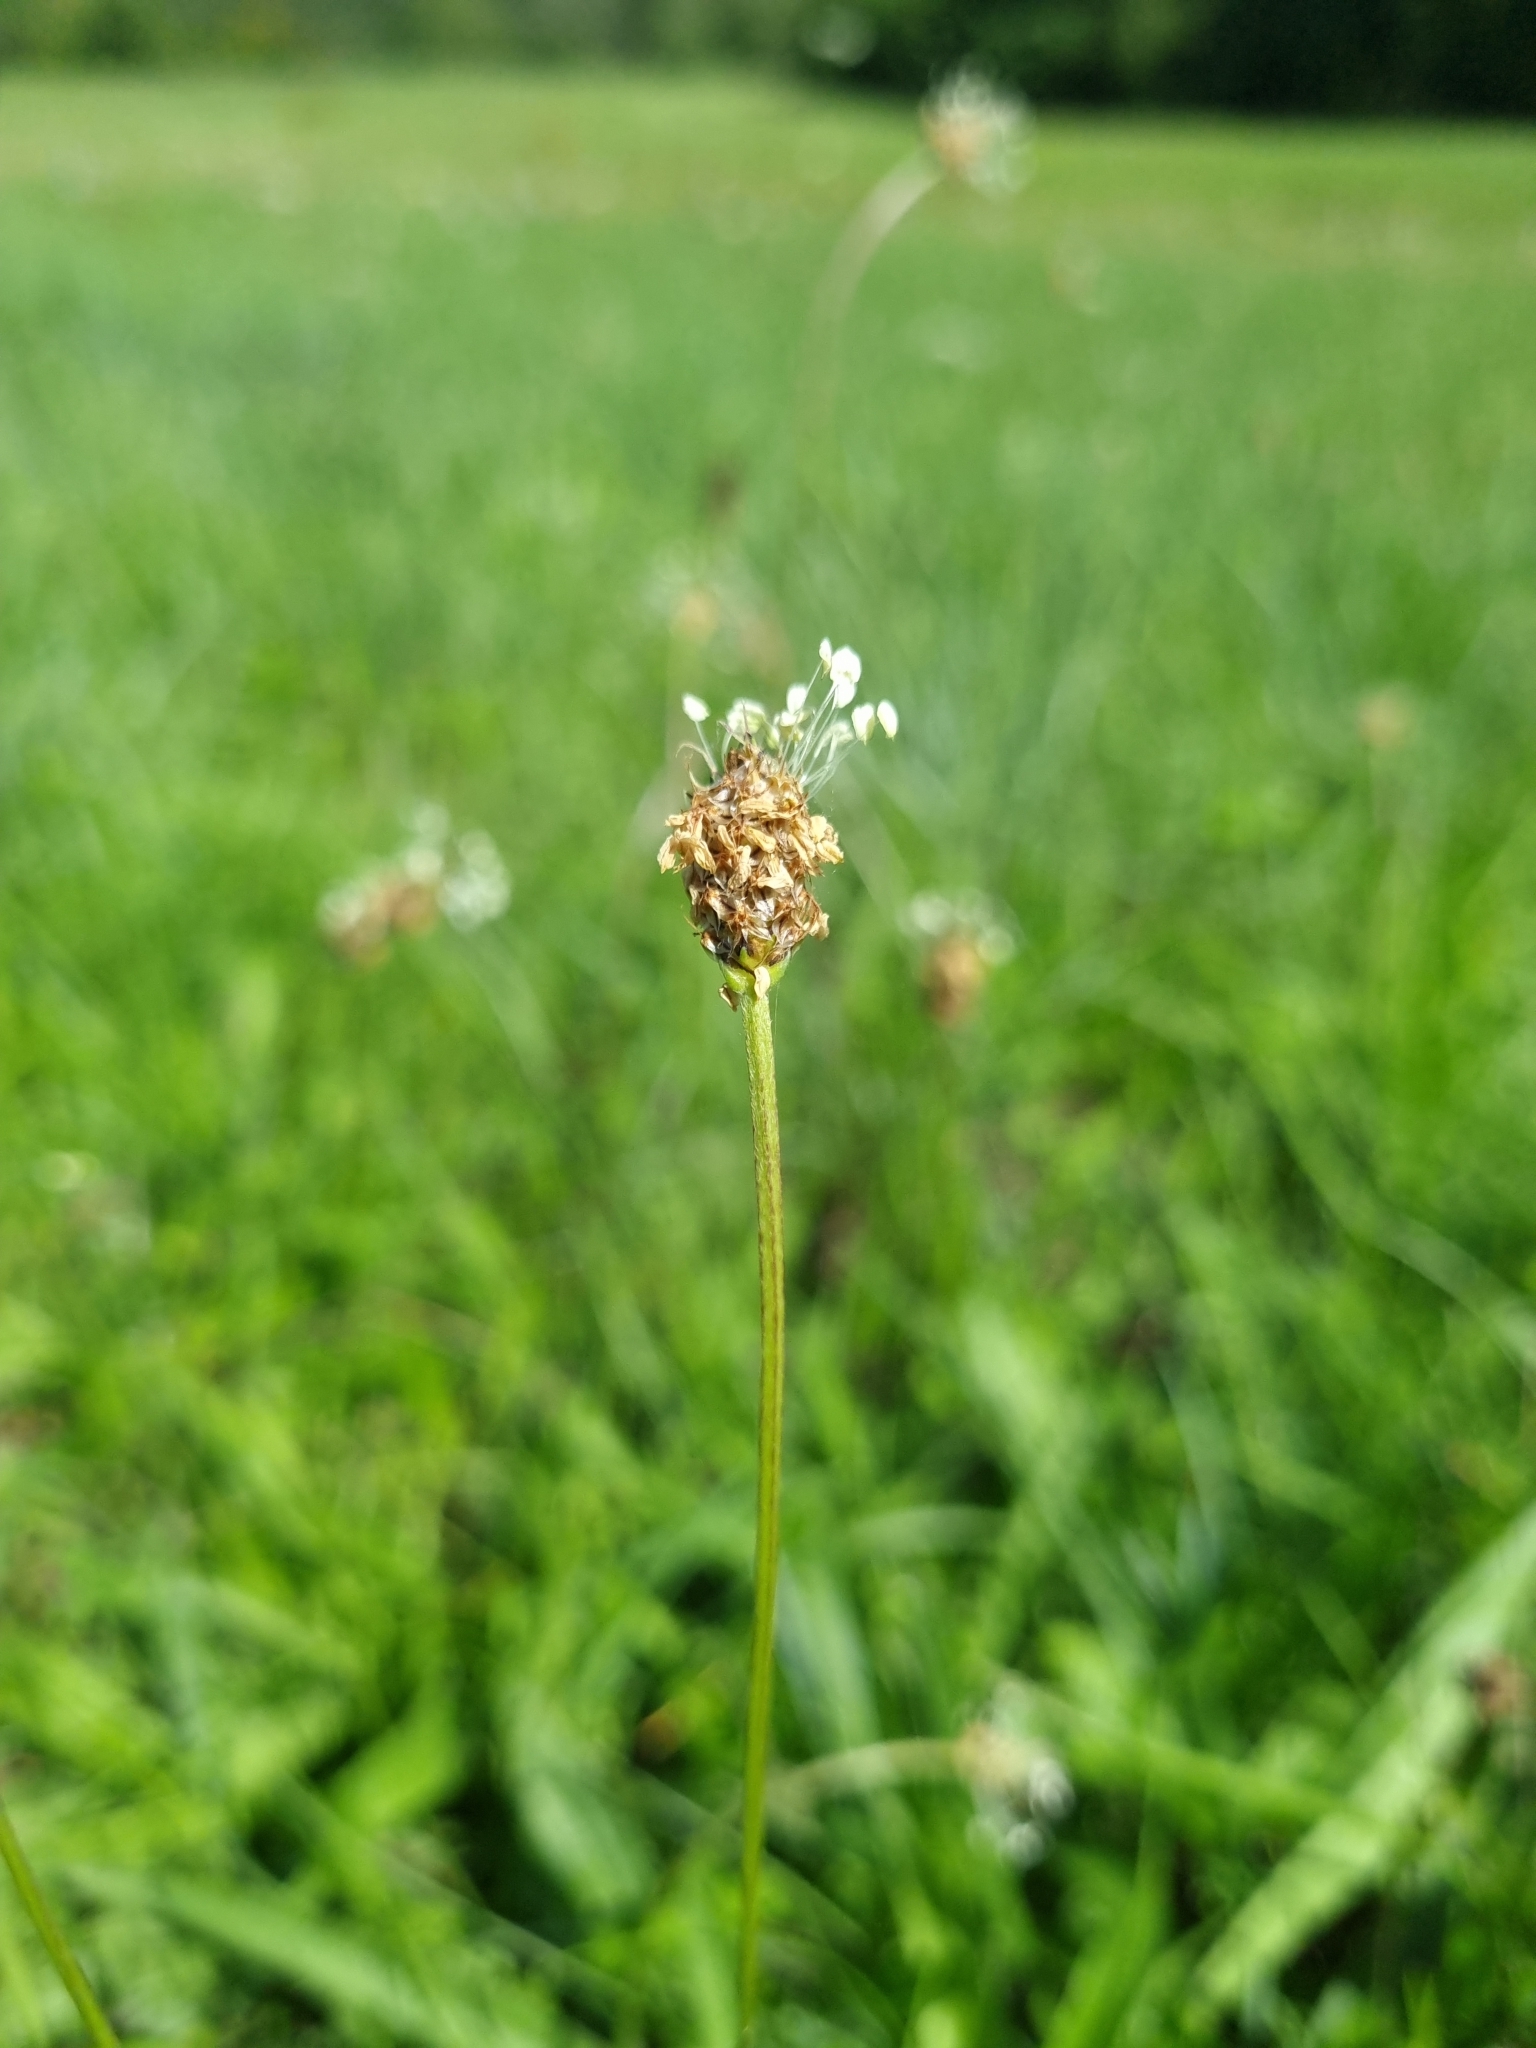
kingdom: Plantae
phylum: Tracheophyta
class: Magnoliopsida
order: Lamiales
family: Plantaginaceae
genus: Plantago
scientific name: Plantago lanceolata
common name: Ribwort plantain
